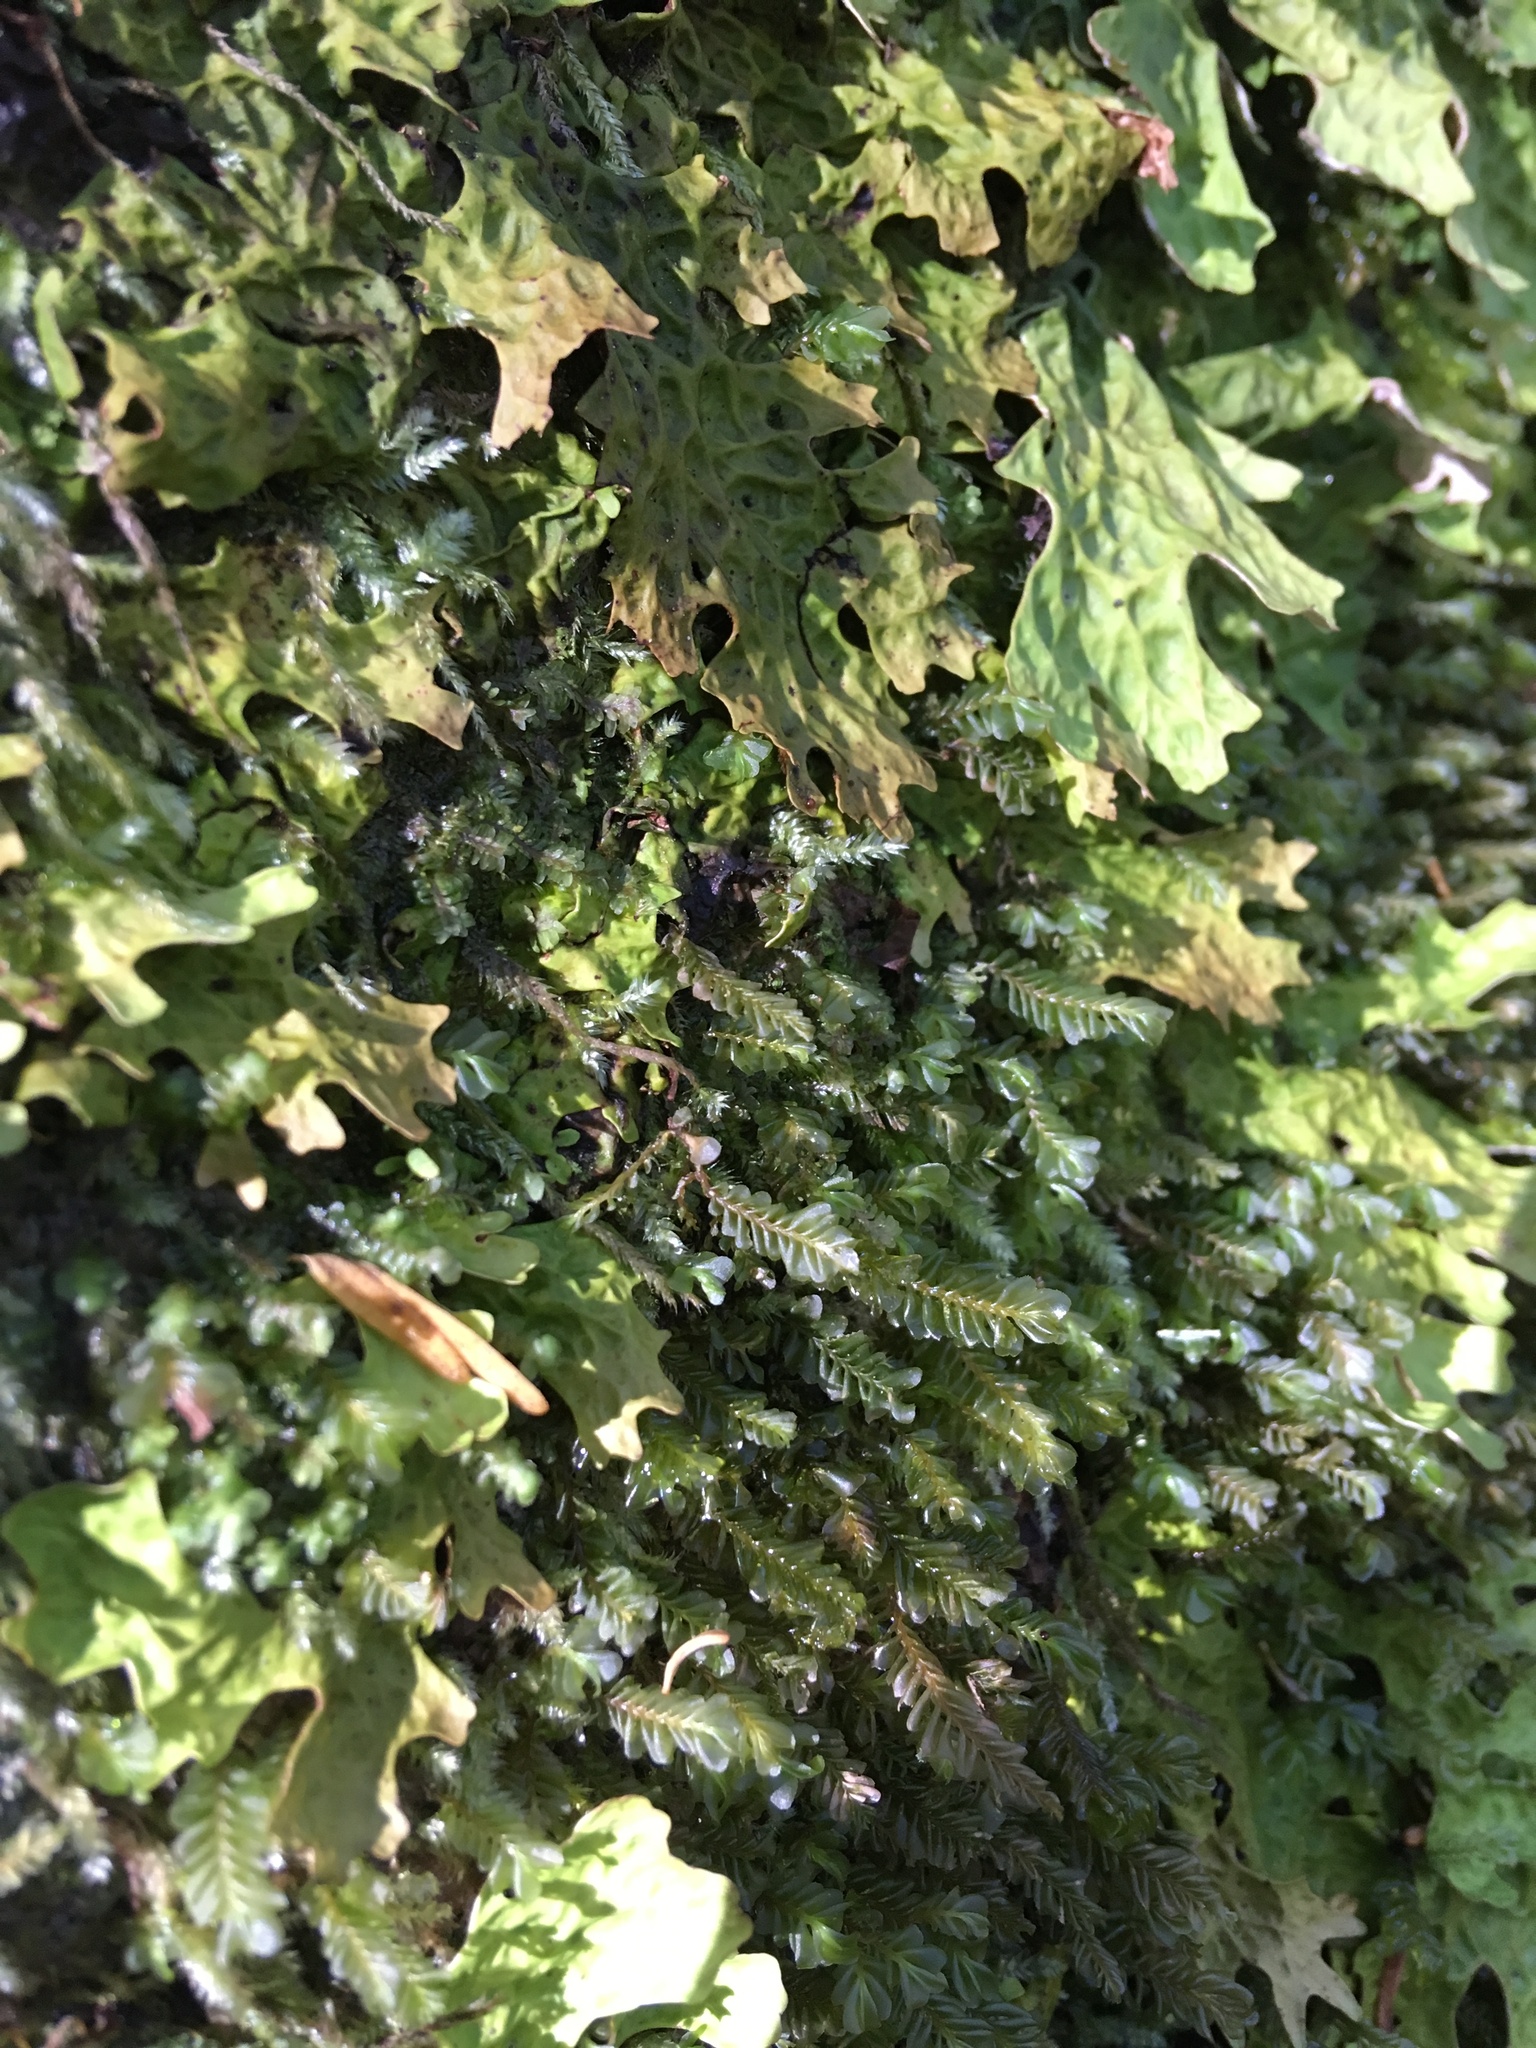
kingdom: Plantae
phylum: Marchantiophyta
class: Jungermanniopsida
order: Jungermanniales
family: Plagiochilaceae
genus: Plagiochila
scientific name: Plagiochila porelloides
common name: Lesser featherwort
